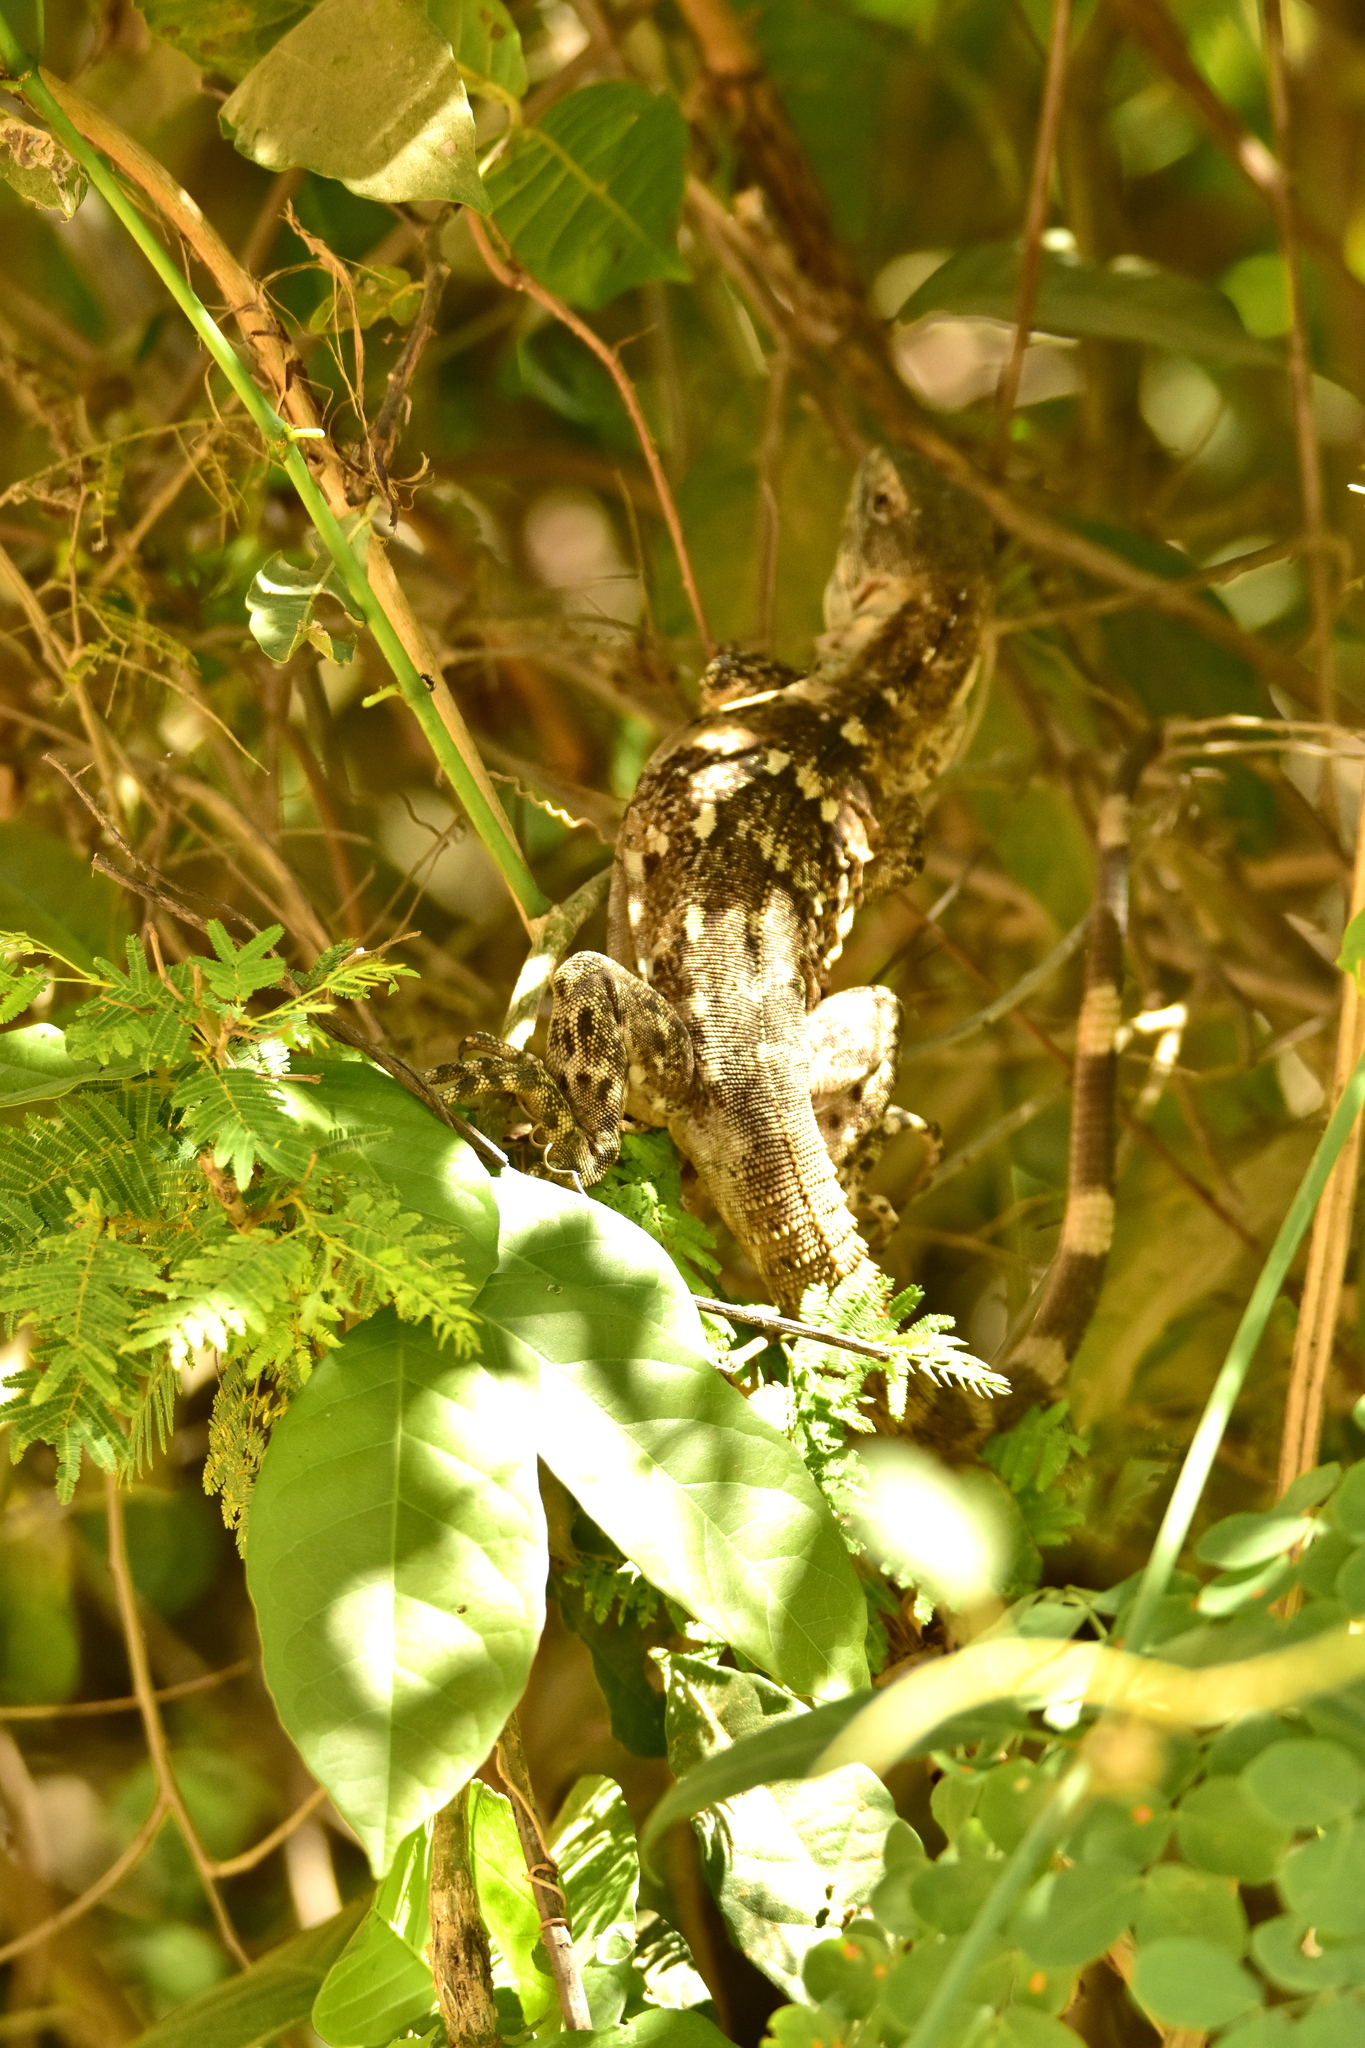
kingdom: Animalia
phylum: Chordata
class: Squamata
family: Iguanidae
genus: Ctenosaura
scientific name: Ctenosaura pectinata
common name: Guerreran spiny-tailed iguana
